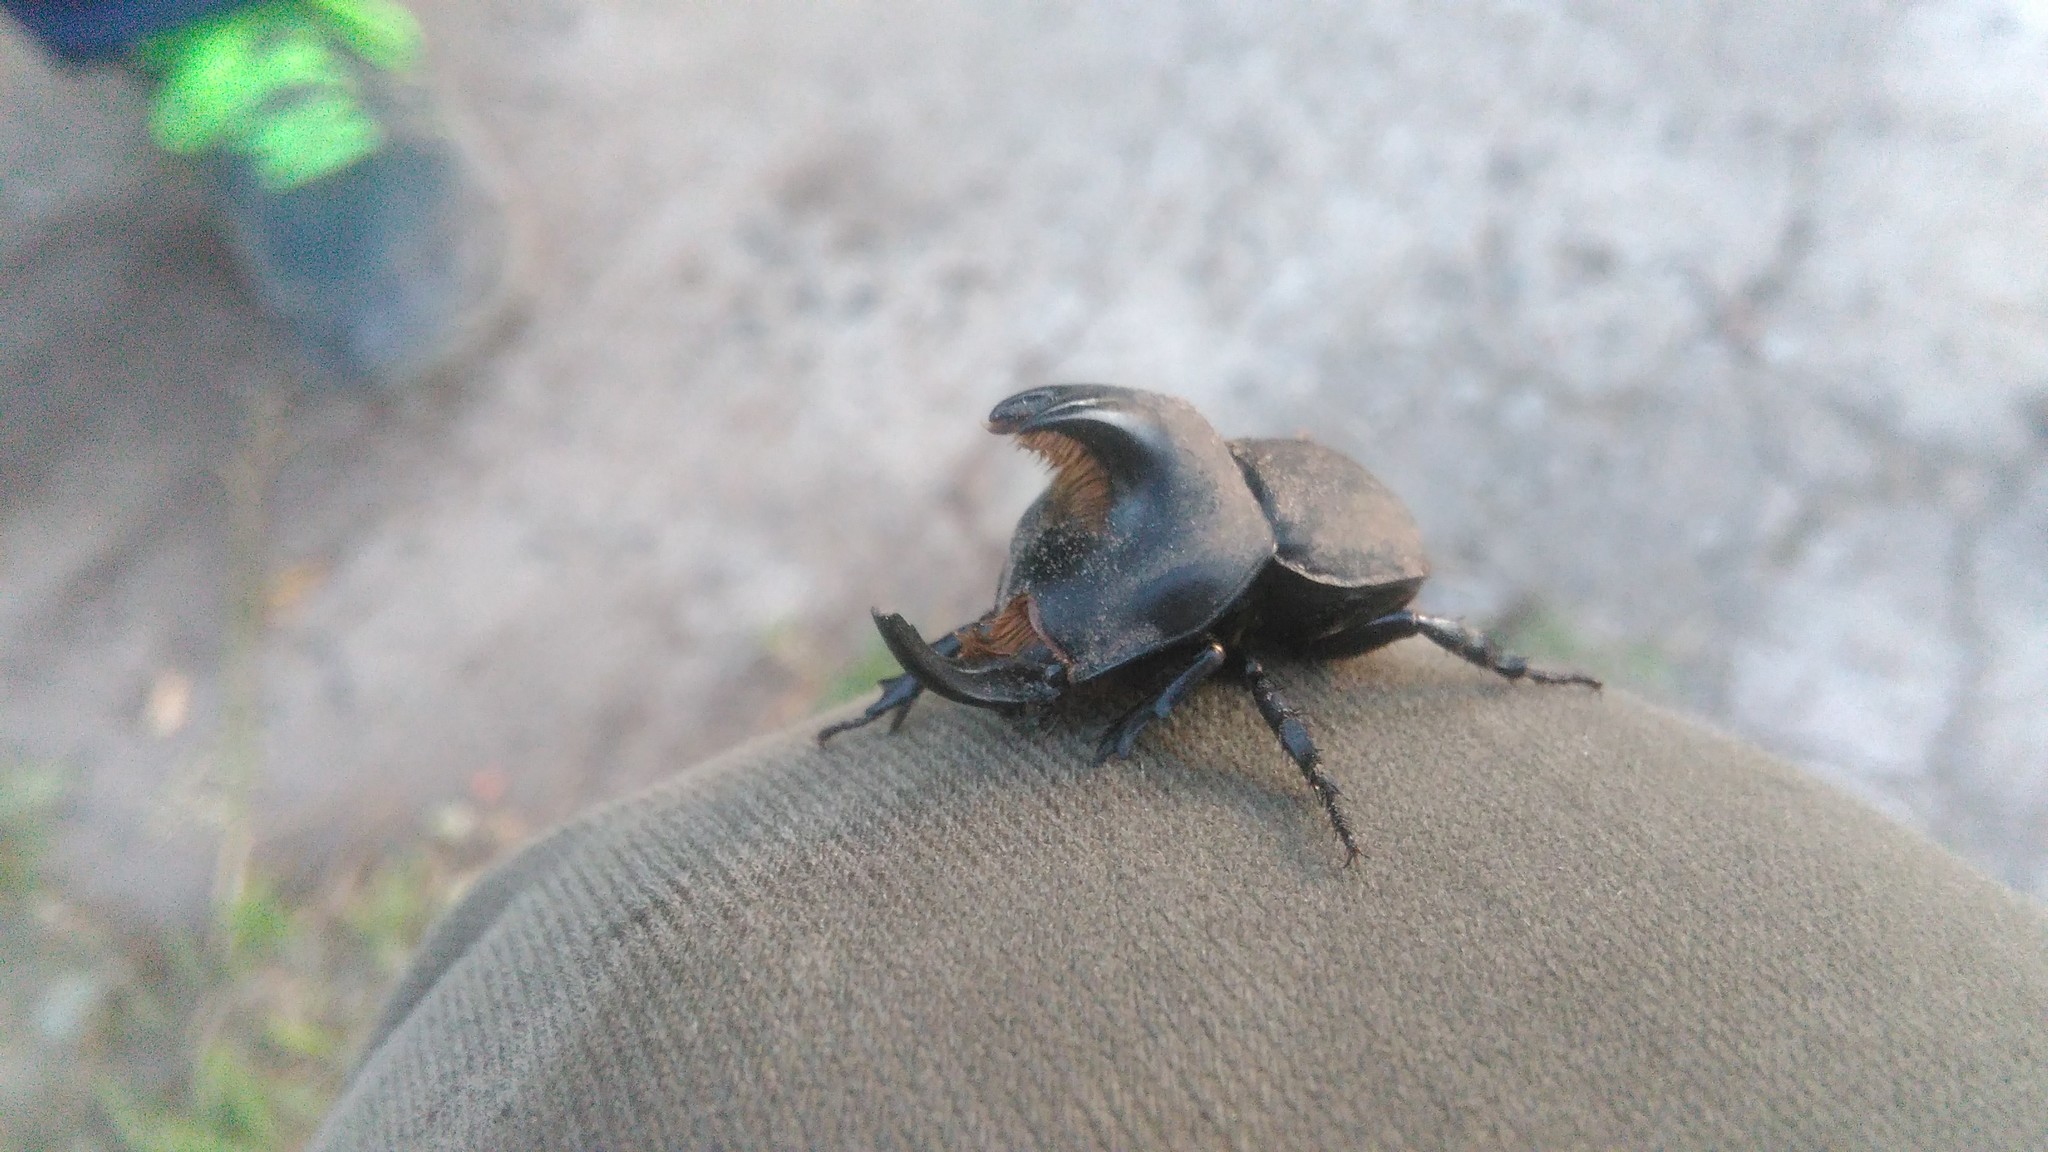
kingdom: Animalia
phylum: Arthropoda
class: Insecta
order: Coleoptera
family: Scarabaeidae
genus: Diloboderus
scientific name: Diloboderus abderus
